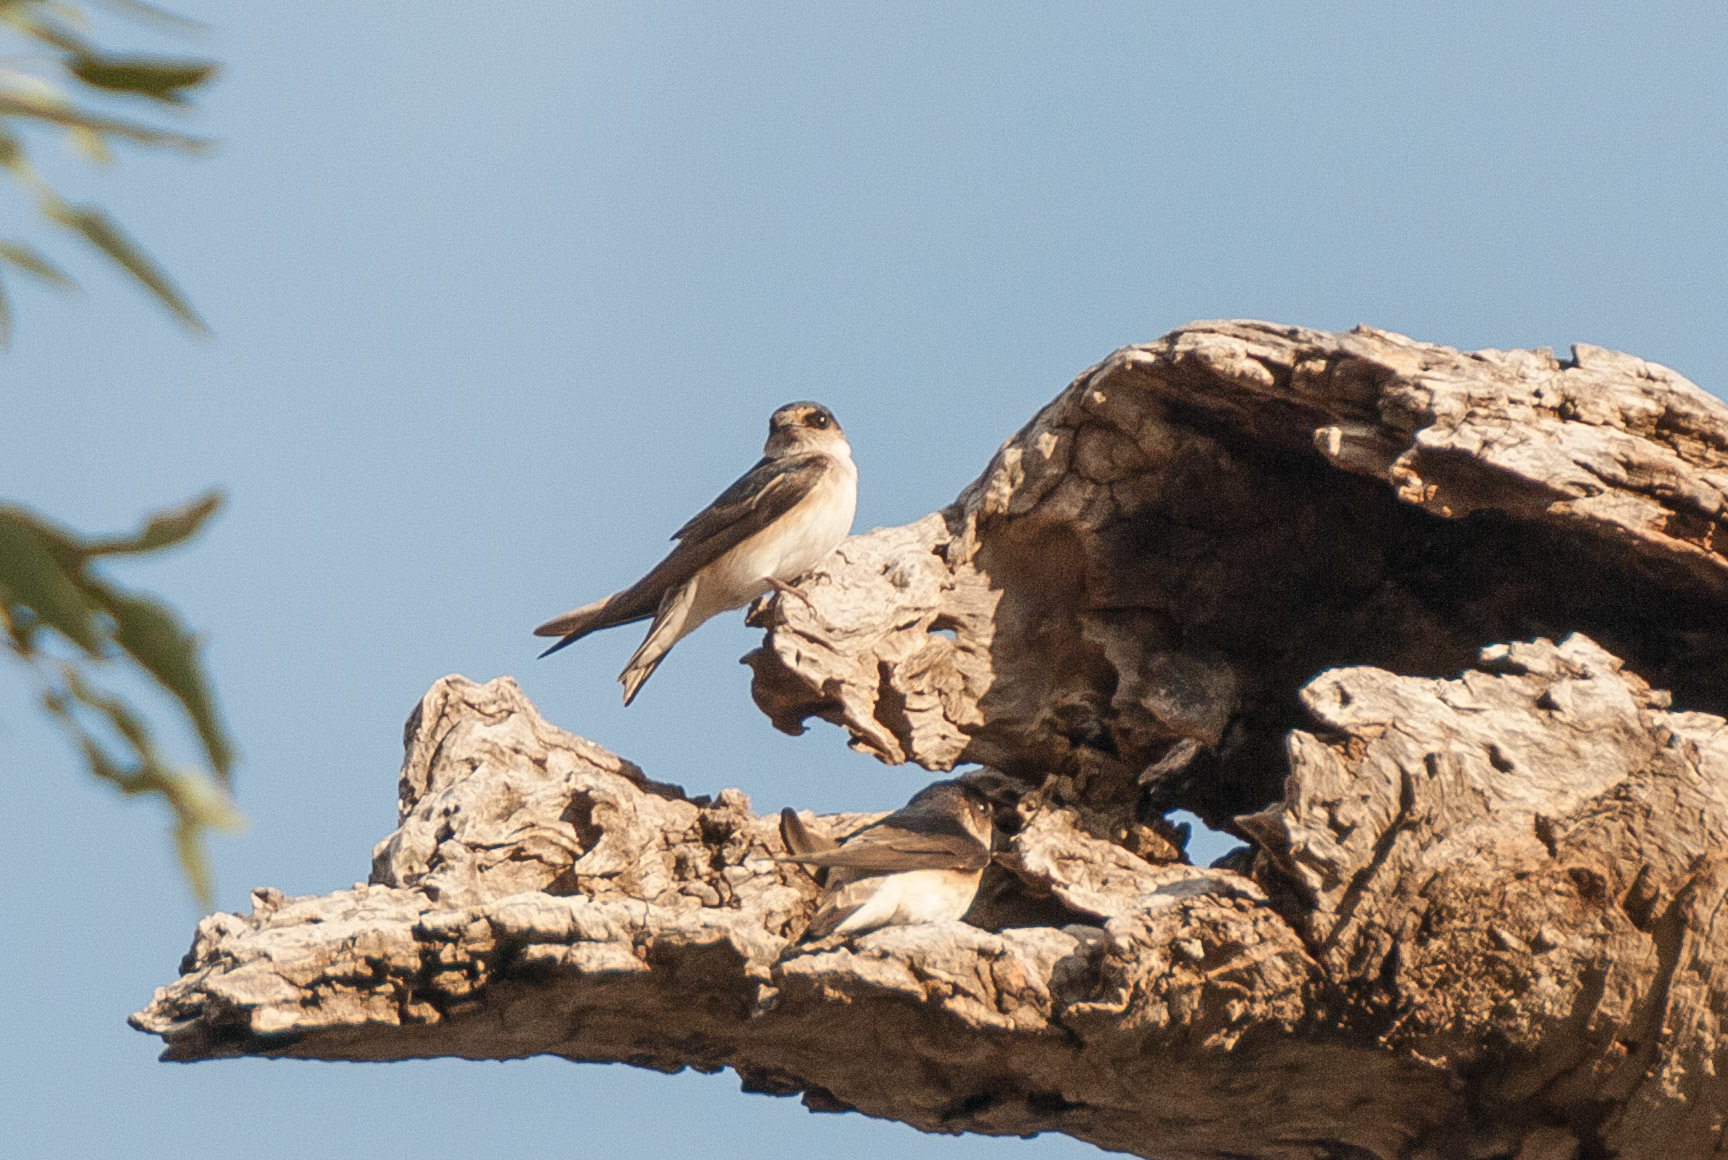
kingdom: Animalia
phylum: Chordata
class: Aves
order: Passeriformes
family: Hirundinidae
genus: Petrochelidon
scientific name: Petrochelidon nigricans
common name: Tree martin
